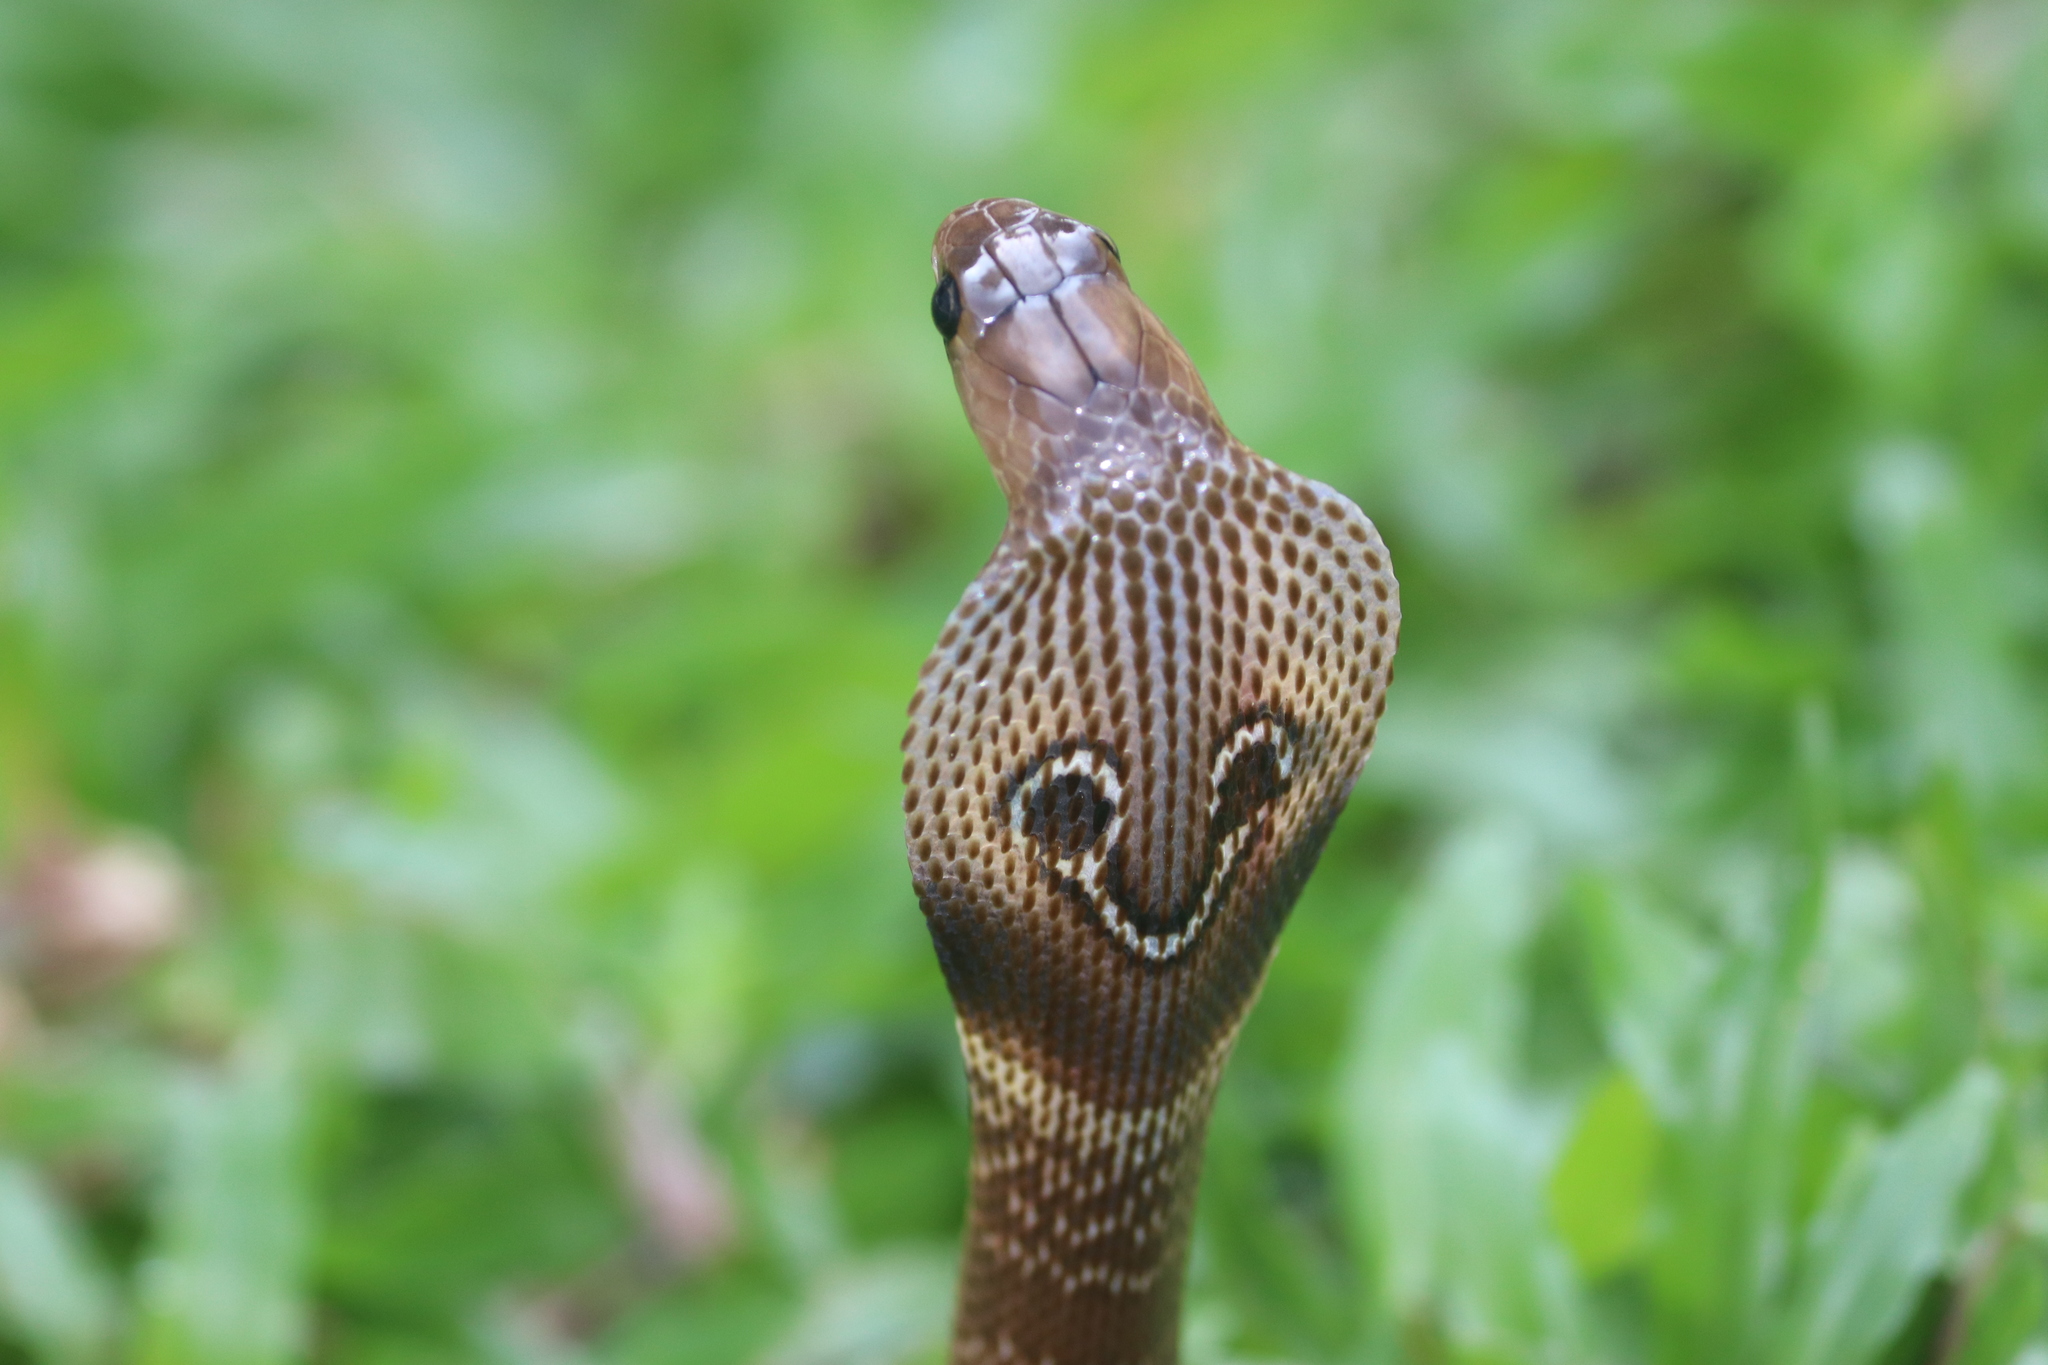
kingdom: Animalia
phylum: Chordata
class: Squamata
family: Elapidae
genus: Naja
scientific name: Naja naja
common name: Indian cobra
